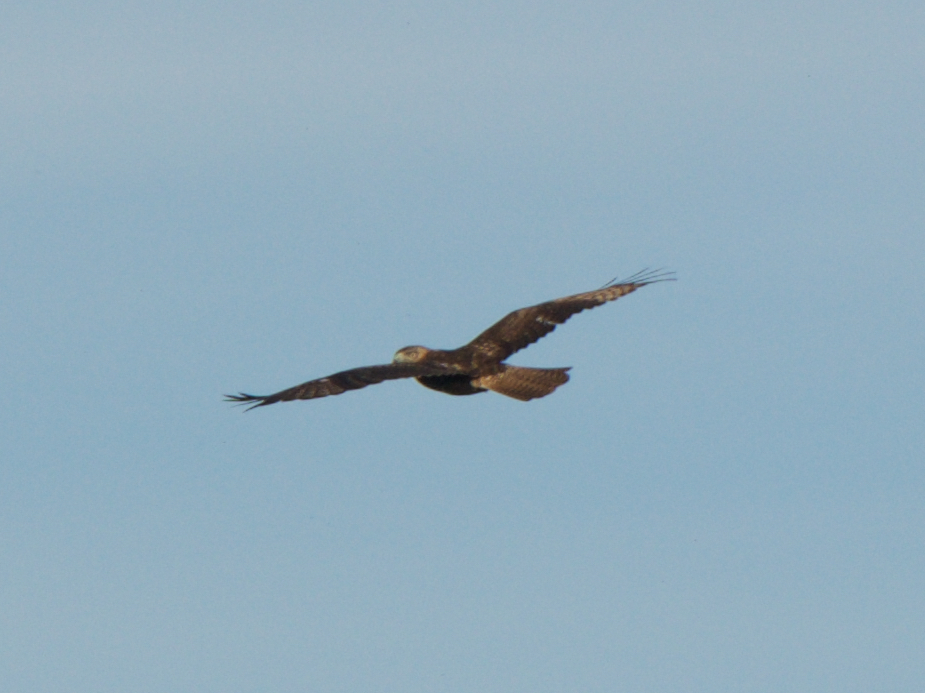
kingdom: Animalia
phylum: Chordata
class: Aves
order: Accipitriformes
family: Accipitridae
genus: Buteo
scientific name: Buteo jamaicensis
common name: Red-tailed hawk
